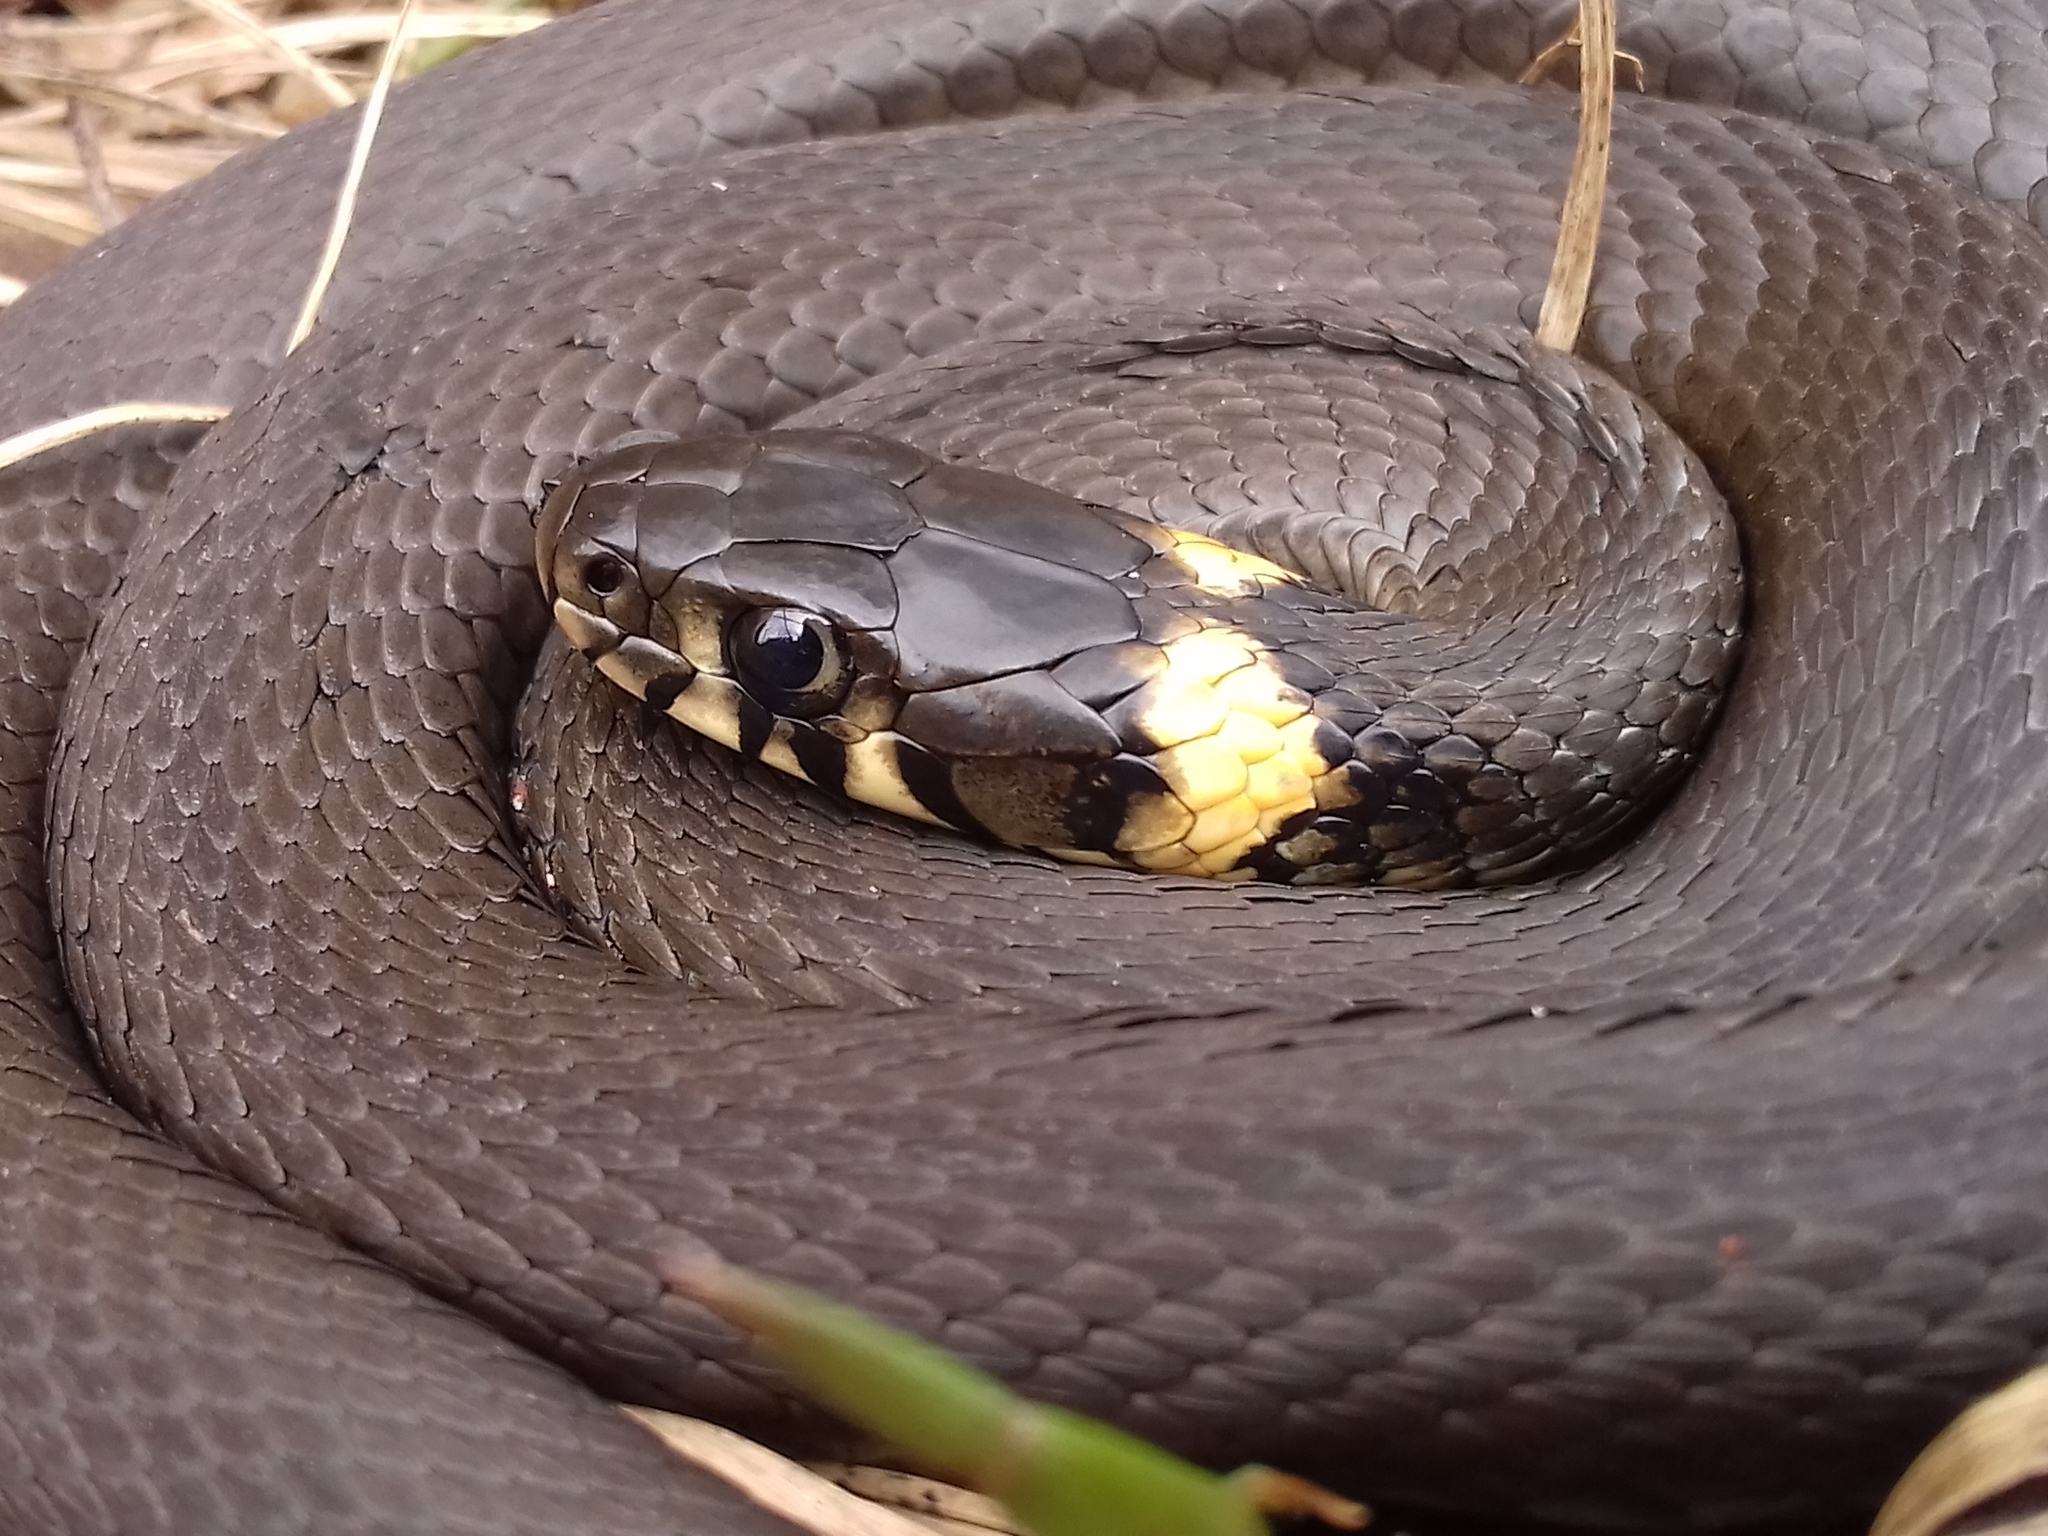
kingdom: Animalia
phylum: Chordata
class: Squamata
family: Colubridae
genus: Natrix
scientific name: Natrix natrix
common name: Grass snake
